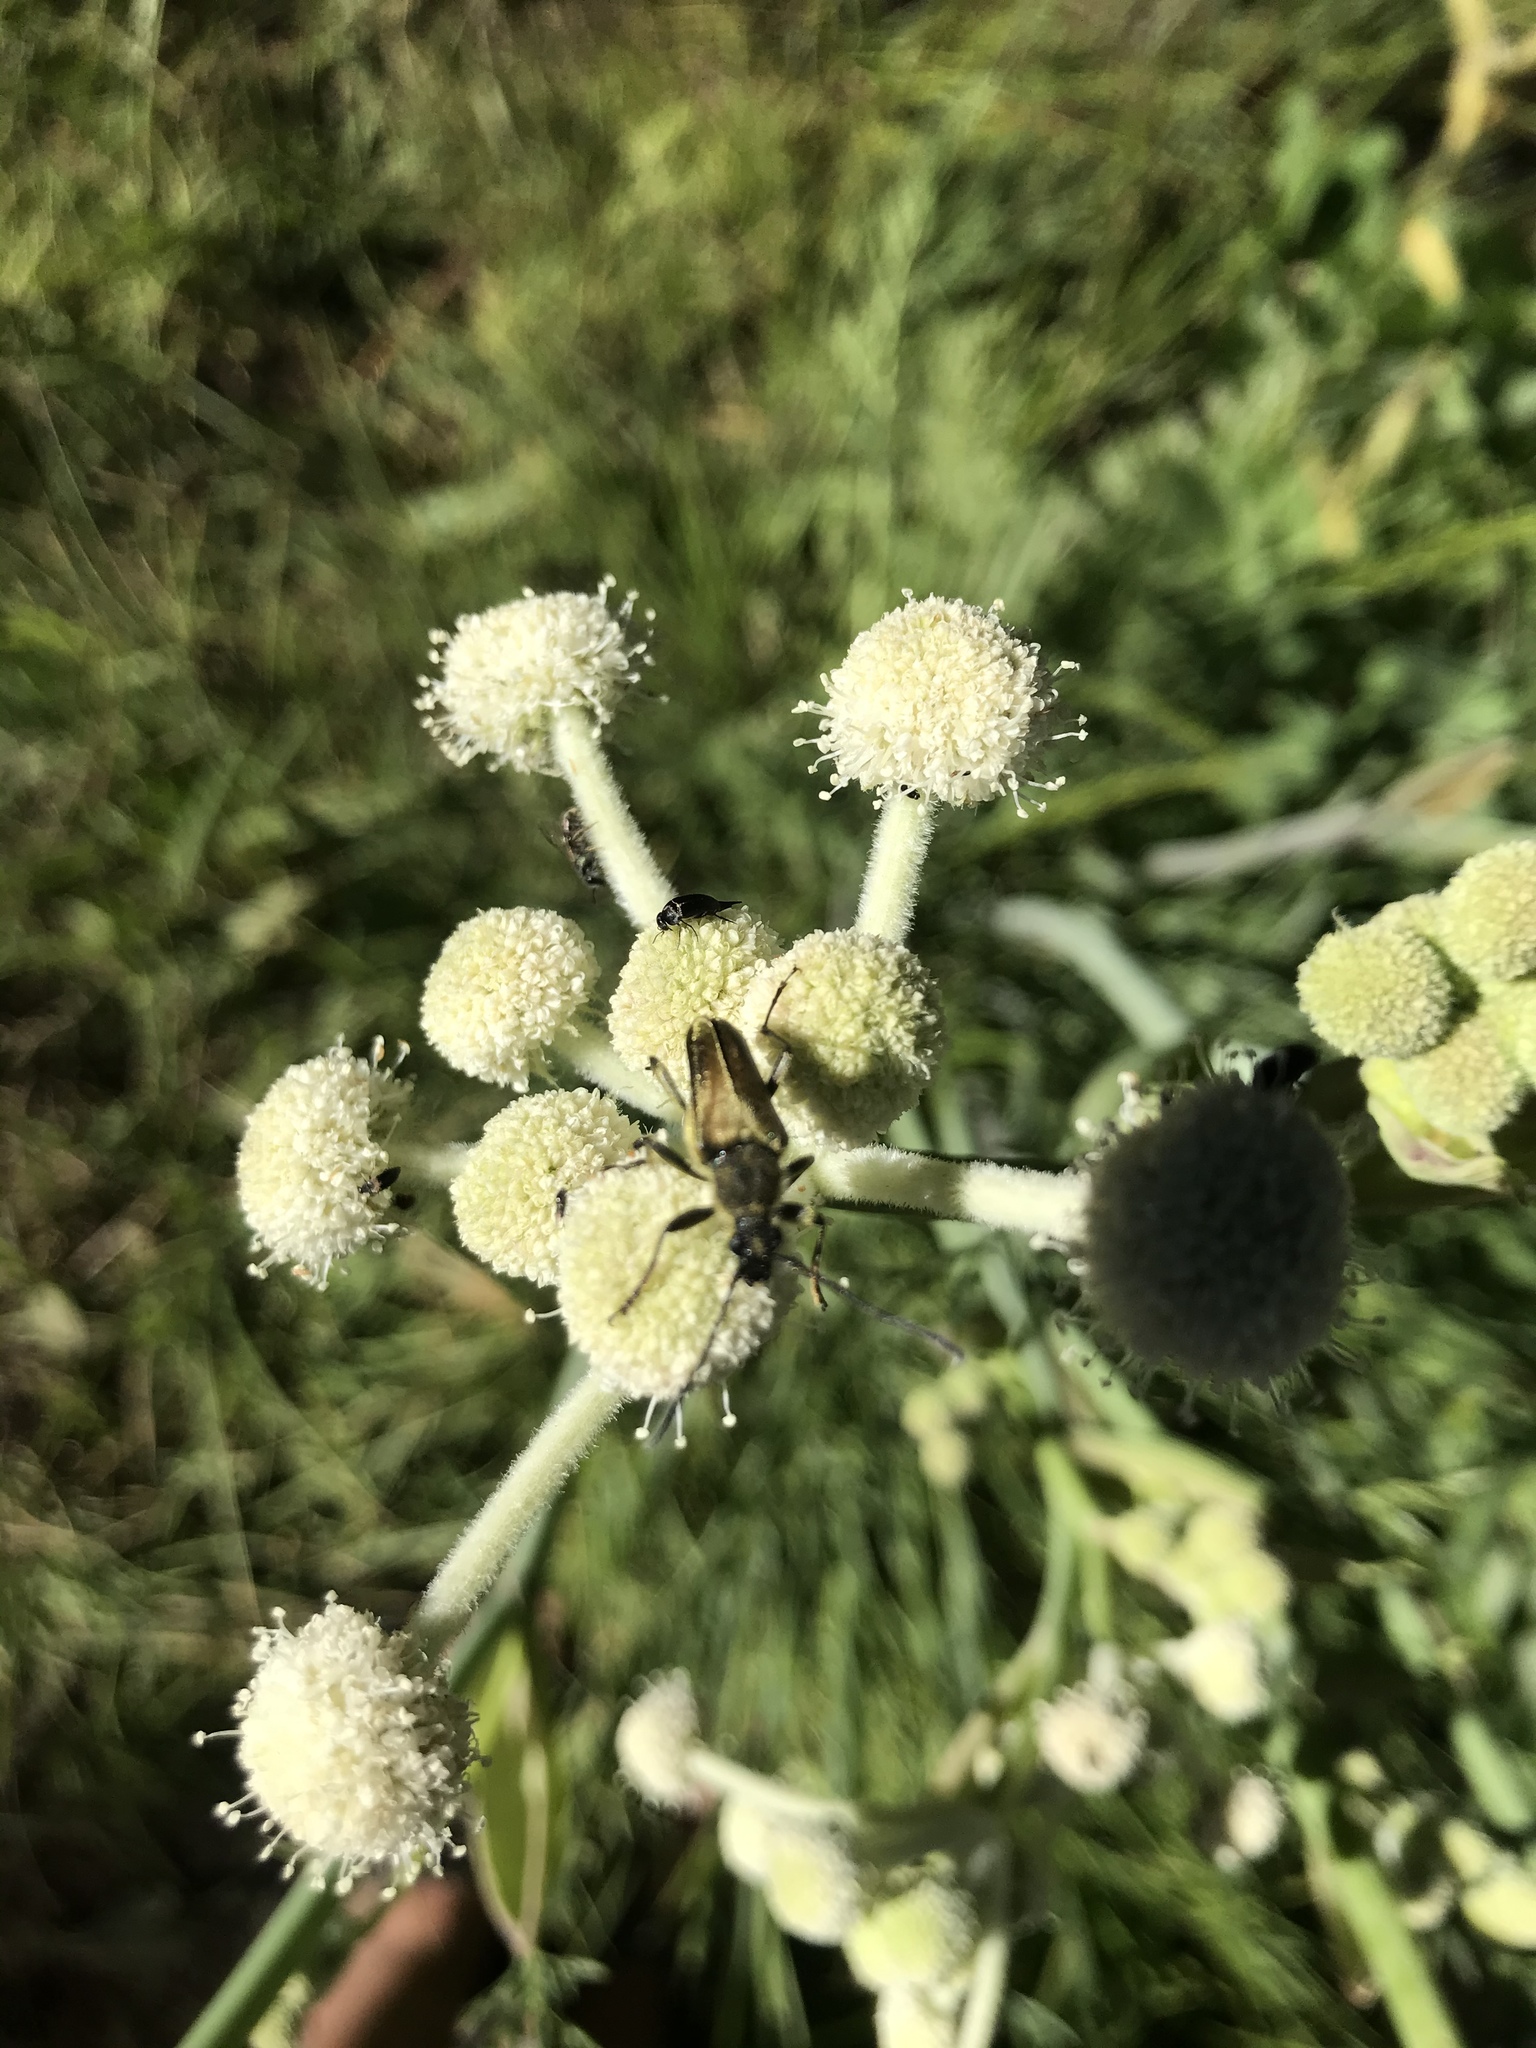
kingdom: Animalia
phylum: Arthropoda
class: Insecta
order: Coleoptera
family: Cerambycidae
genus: Cosmosalia
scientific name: Cosmosalia chrysocoma
